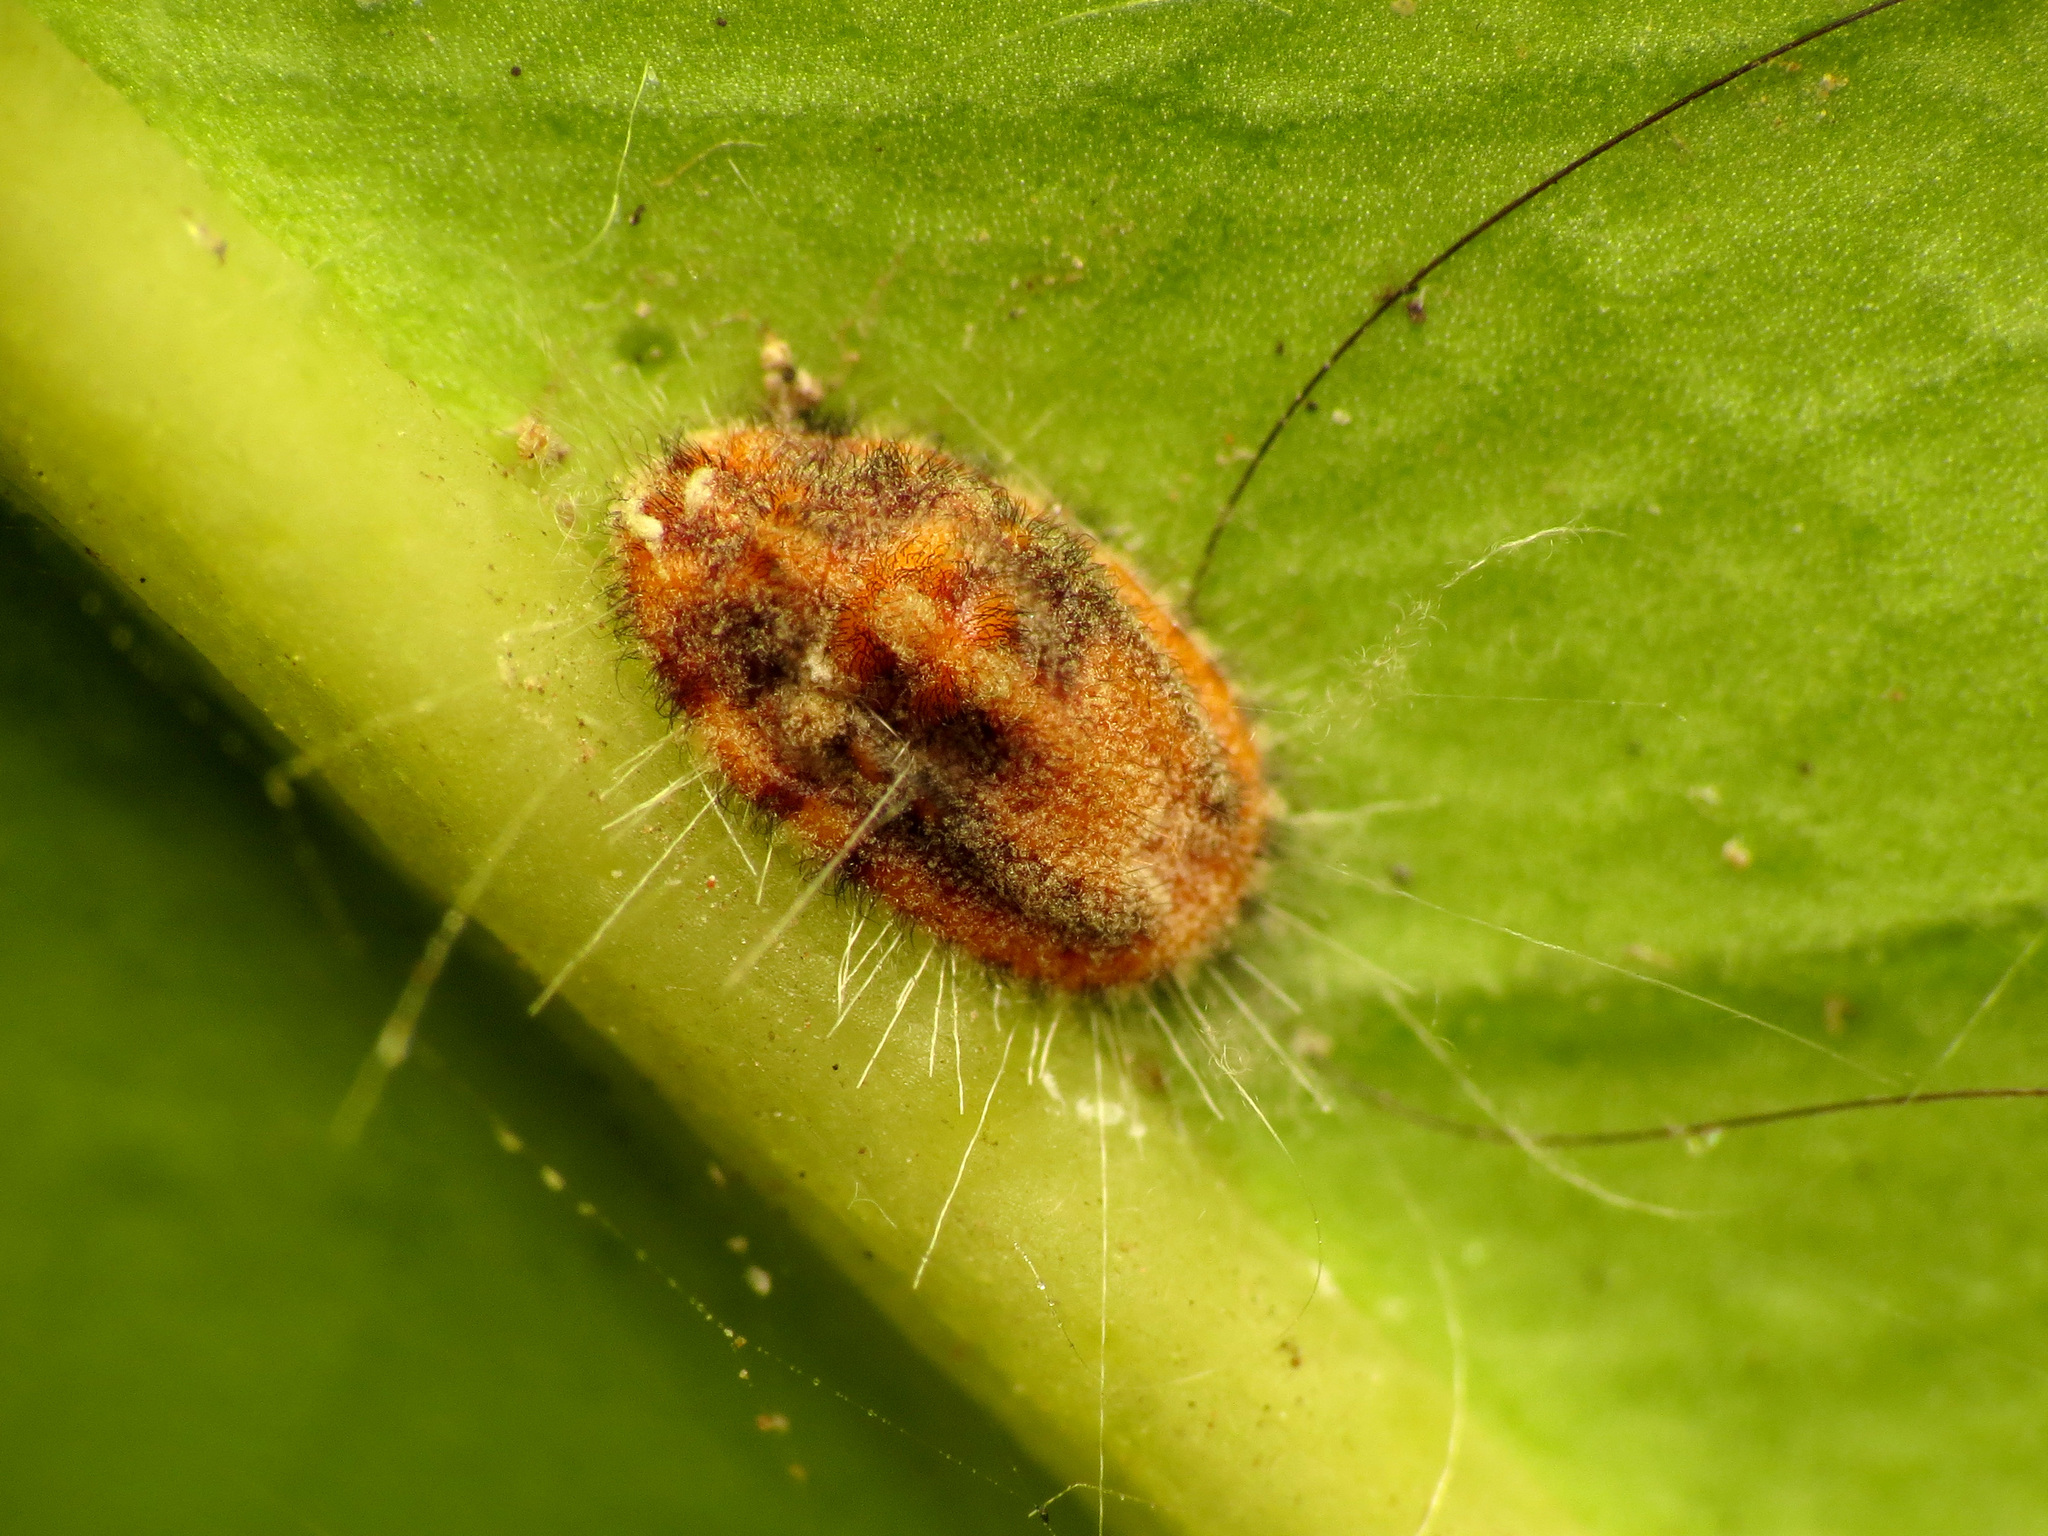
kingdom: Animalia
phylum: Arthropoda
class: Insecta
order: Hemiptera
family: Margarodidae
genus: Icerya
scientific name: Icerya purchasi
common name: Cottony cushion scale
